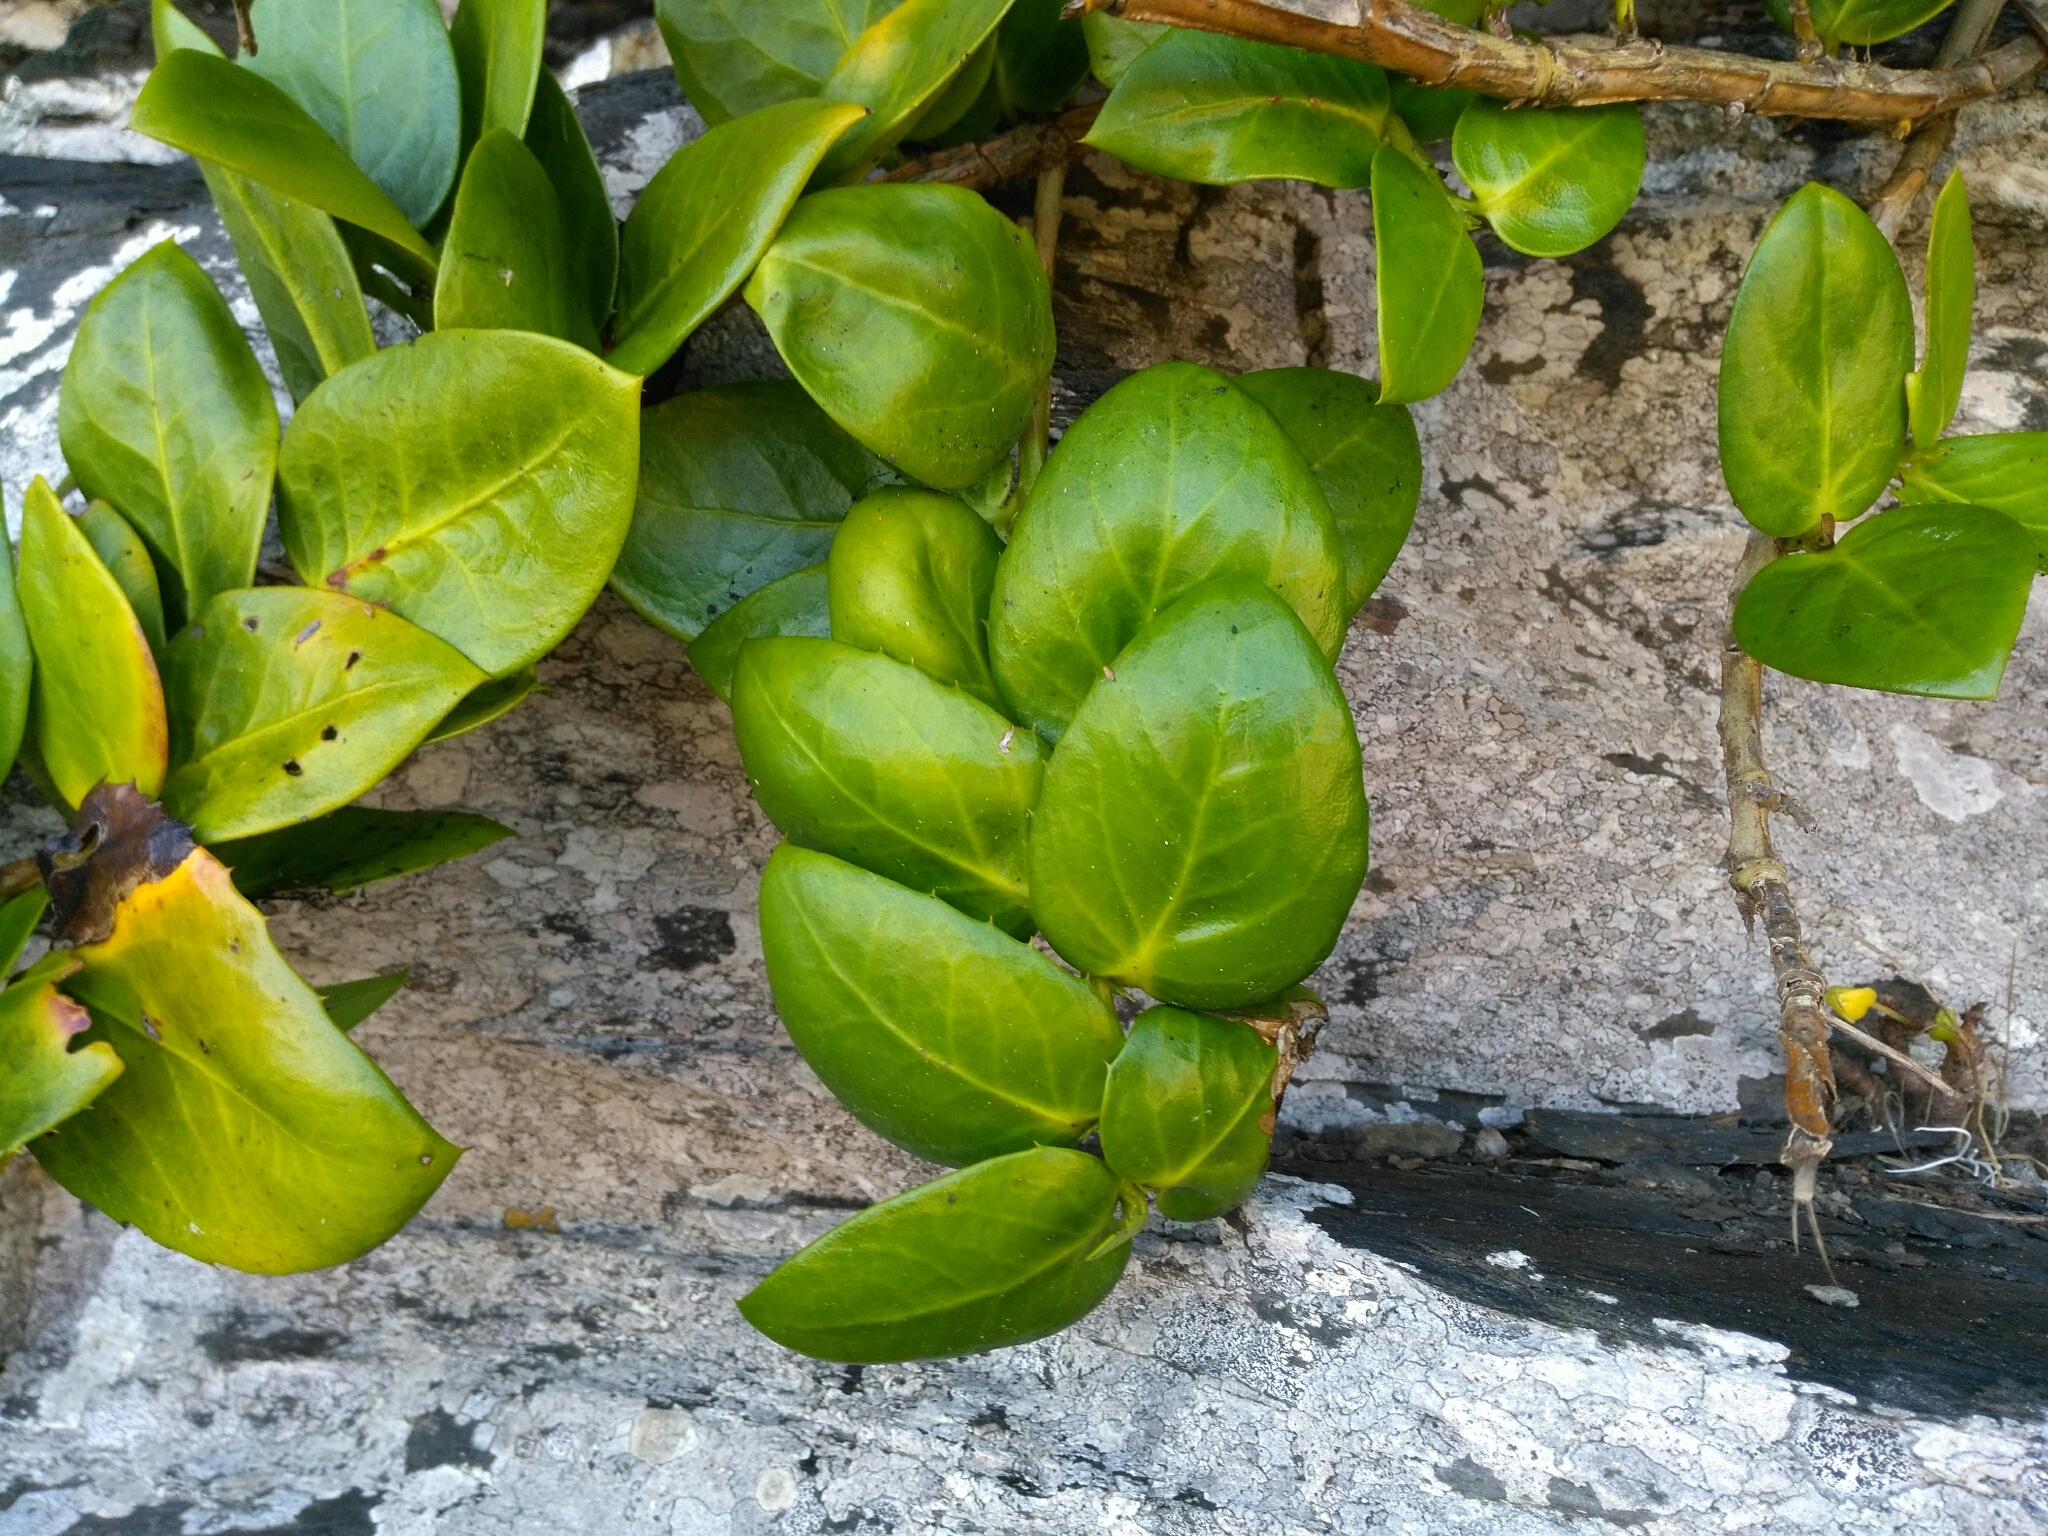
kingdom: Plantae
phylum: Tracheophyta
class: Magnoliopsida
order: Apiales
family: Griseliniaceae
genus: Griselinia
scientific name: Griselinia scandens
